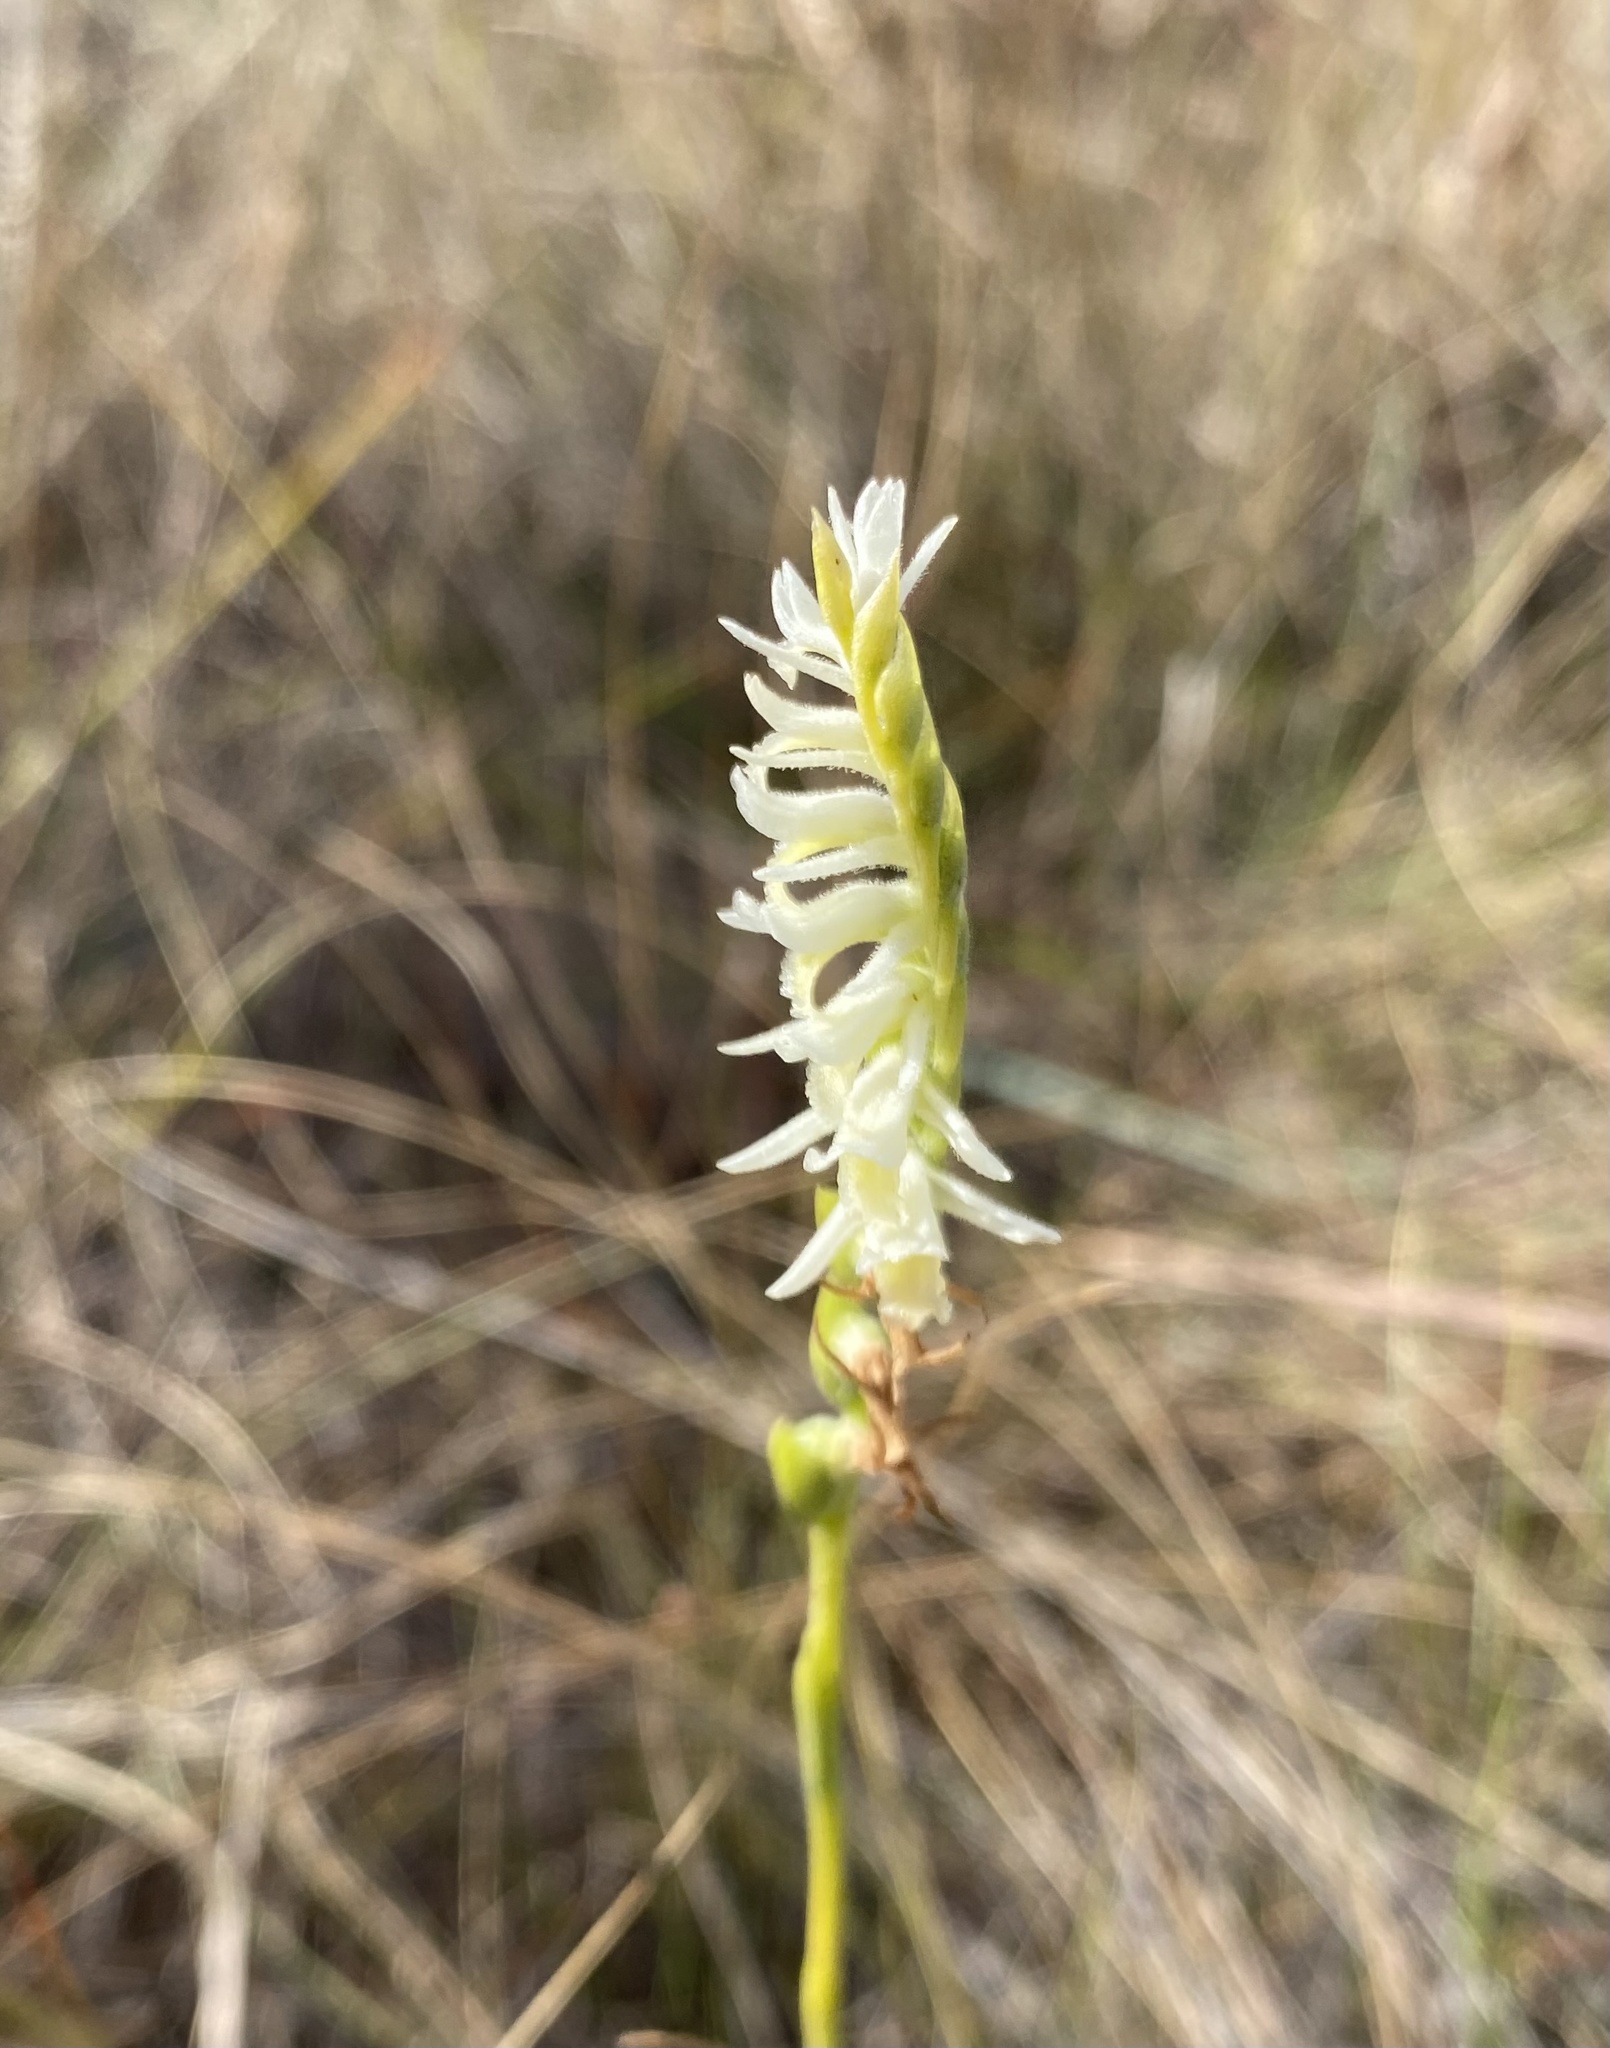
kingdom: Plantae
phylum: Tracheophyta
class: Liliopsida
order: Asparagales
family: Orchidaceae
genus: Spiranthes
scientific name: Spiranthes longilabris
